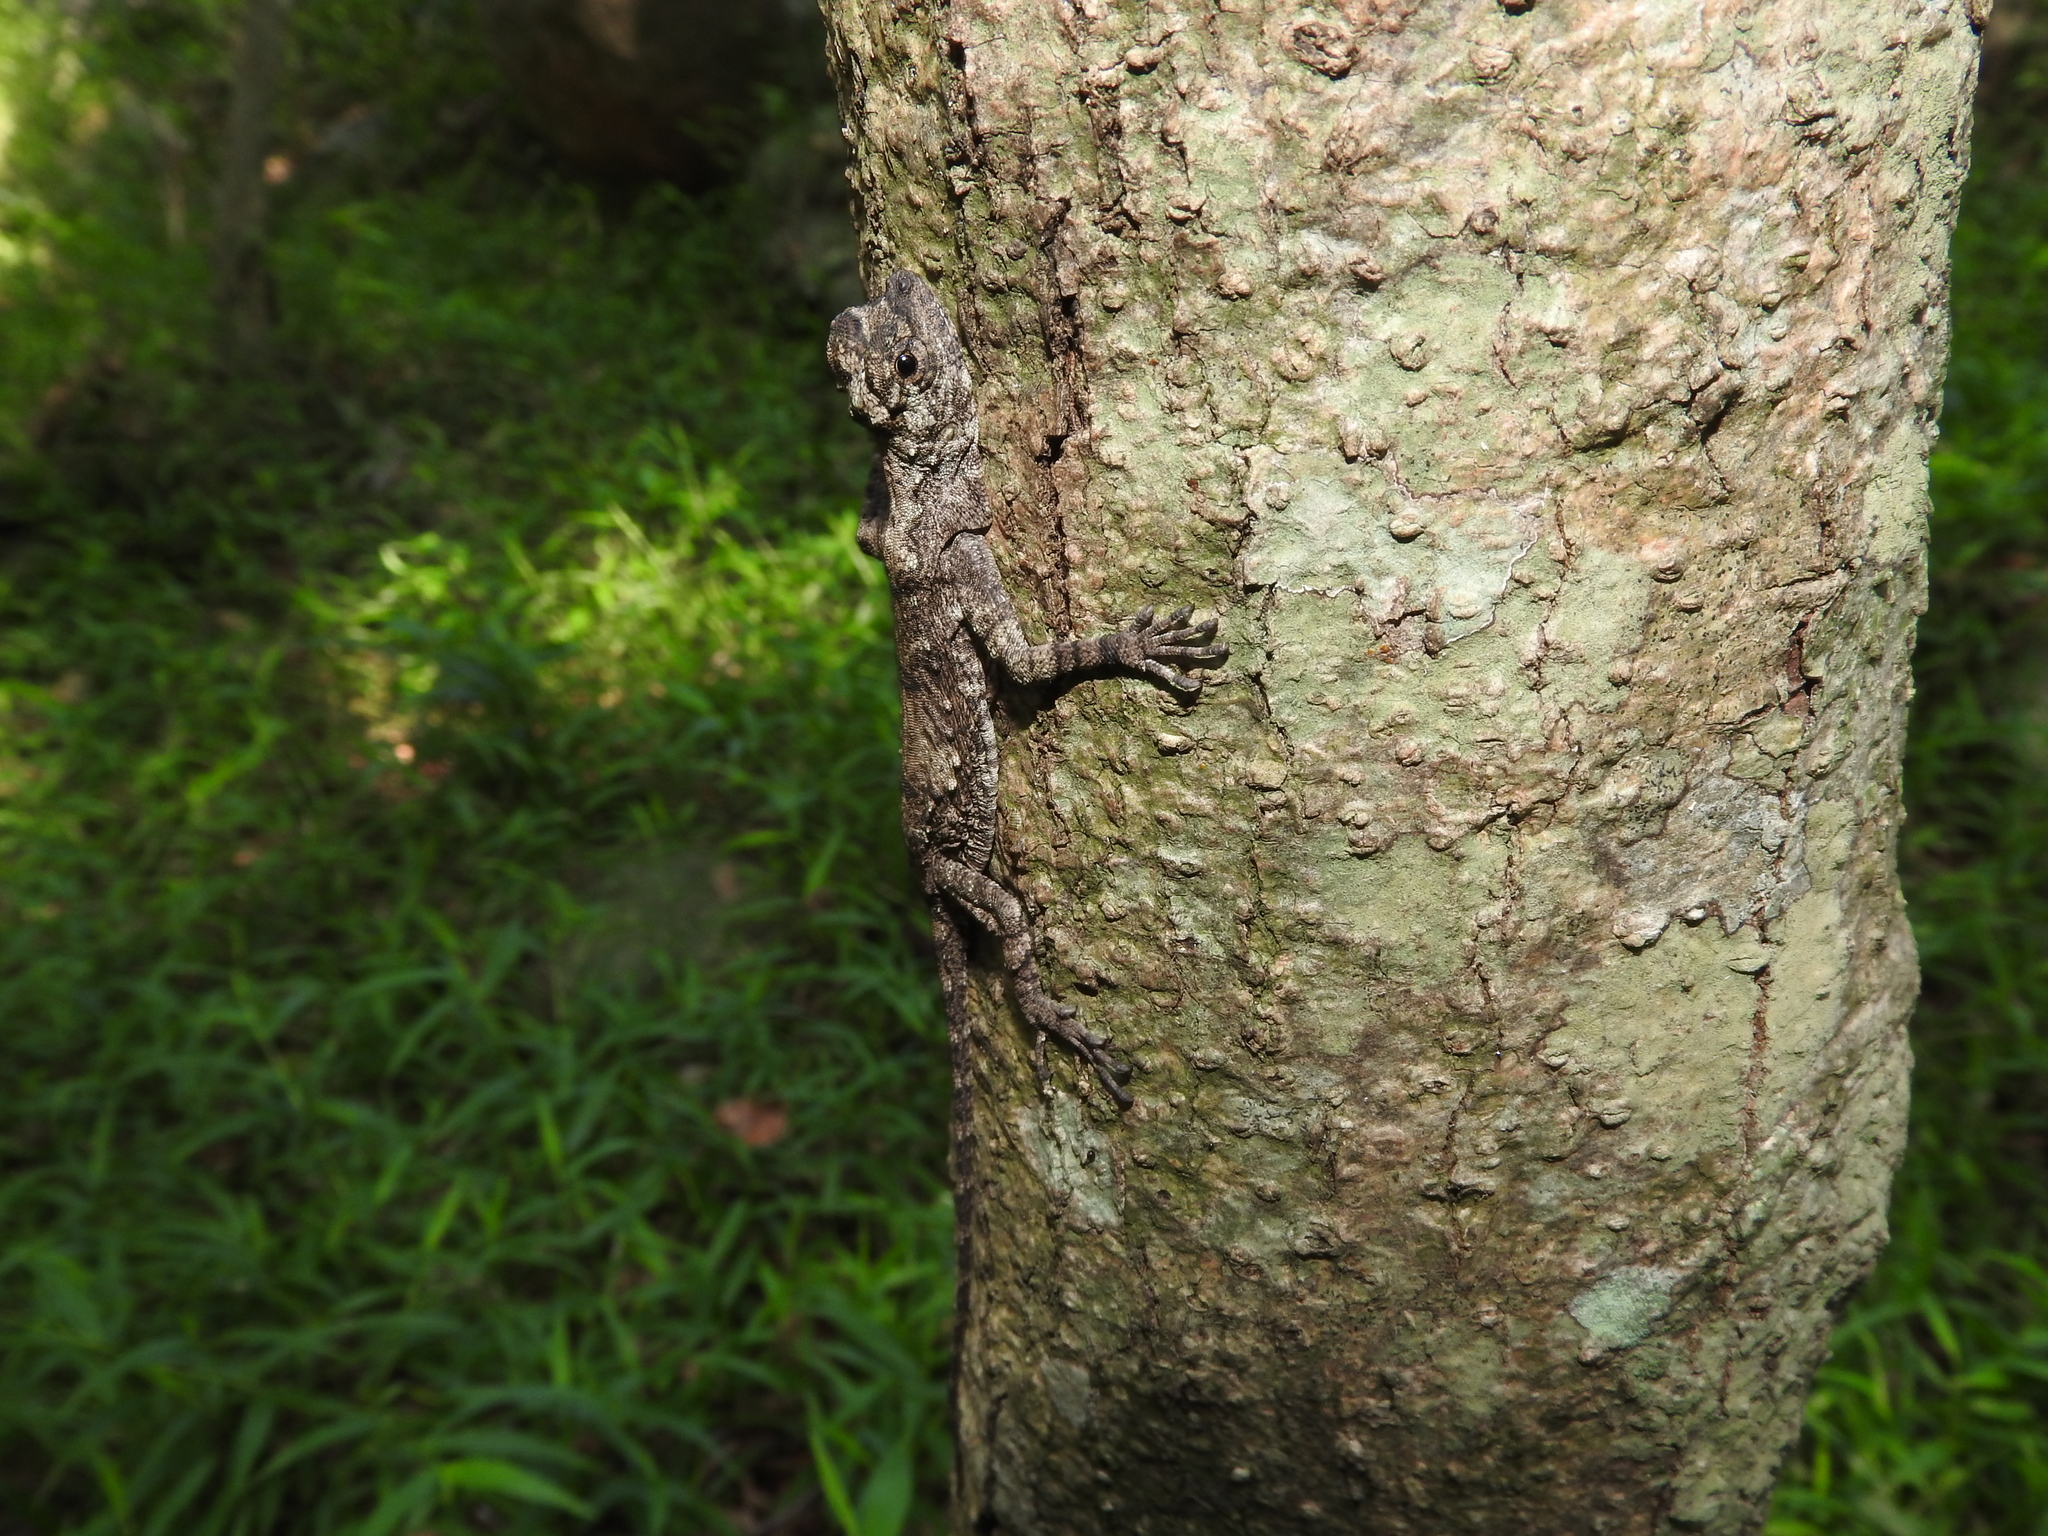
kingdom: Animalia
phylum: Chordata
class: Squamata
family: Agamidae
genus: Draco
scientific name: Draco dussumieri
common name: Southern flying lizard
